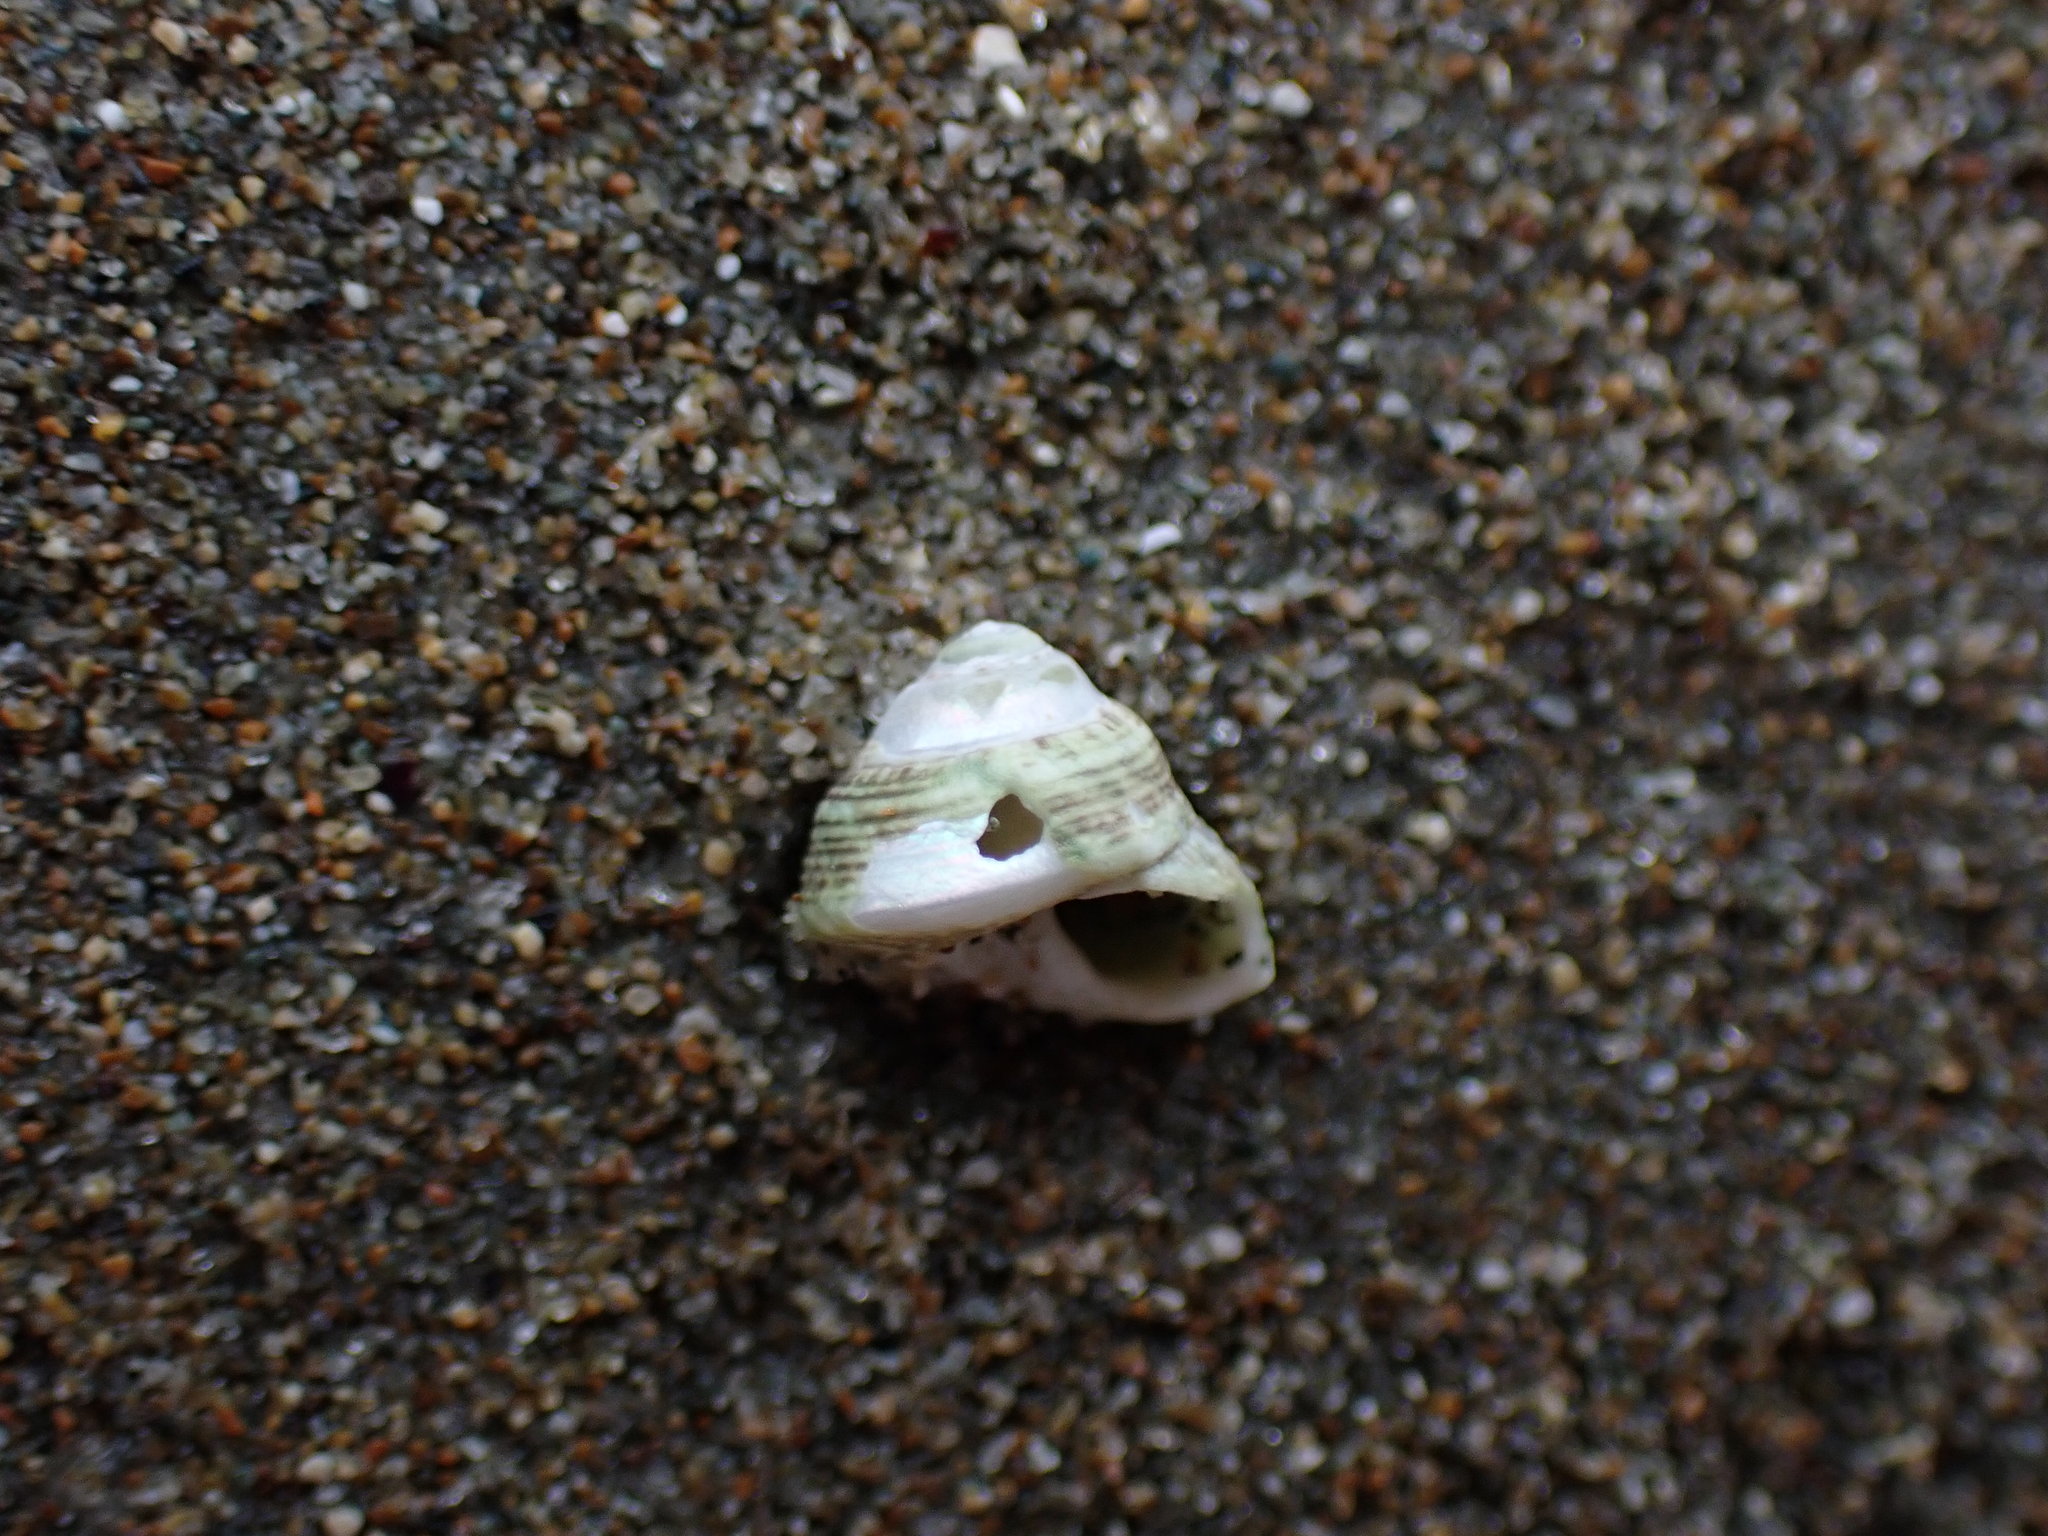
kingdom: Animalia
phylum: Mollusca
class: Gastropoda
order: Trochida
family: Trochidae
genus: Coelotrochus
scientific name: Coelotrochus oppressus
